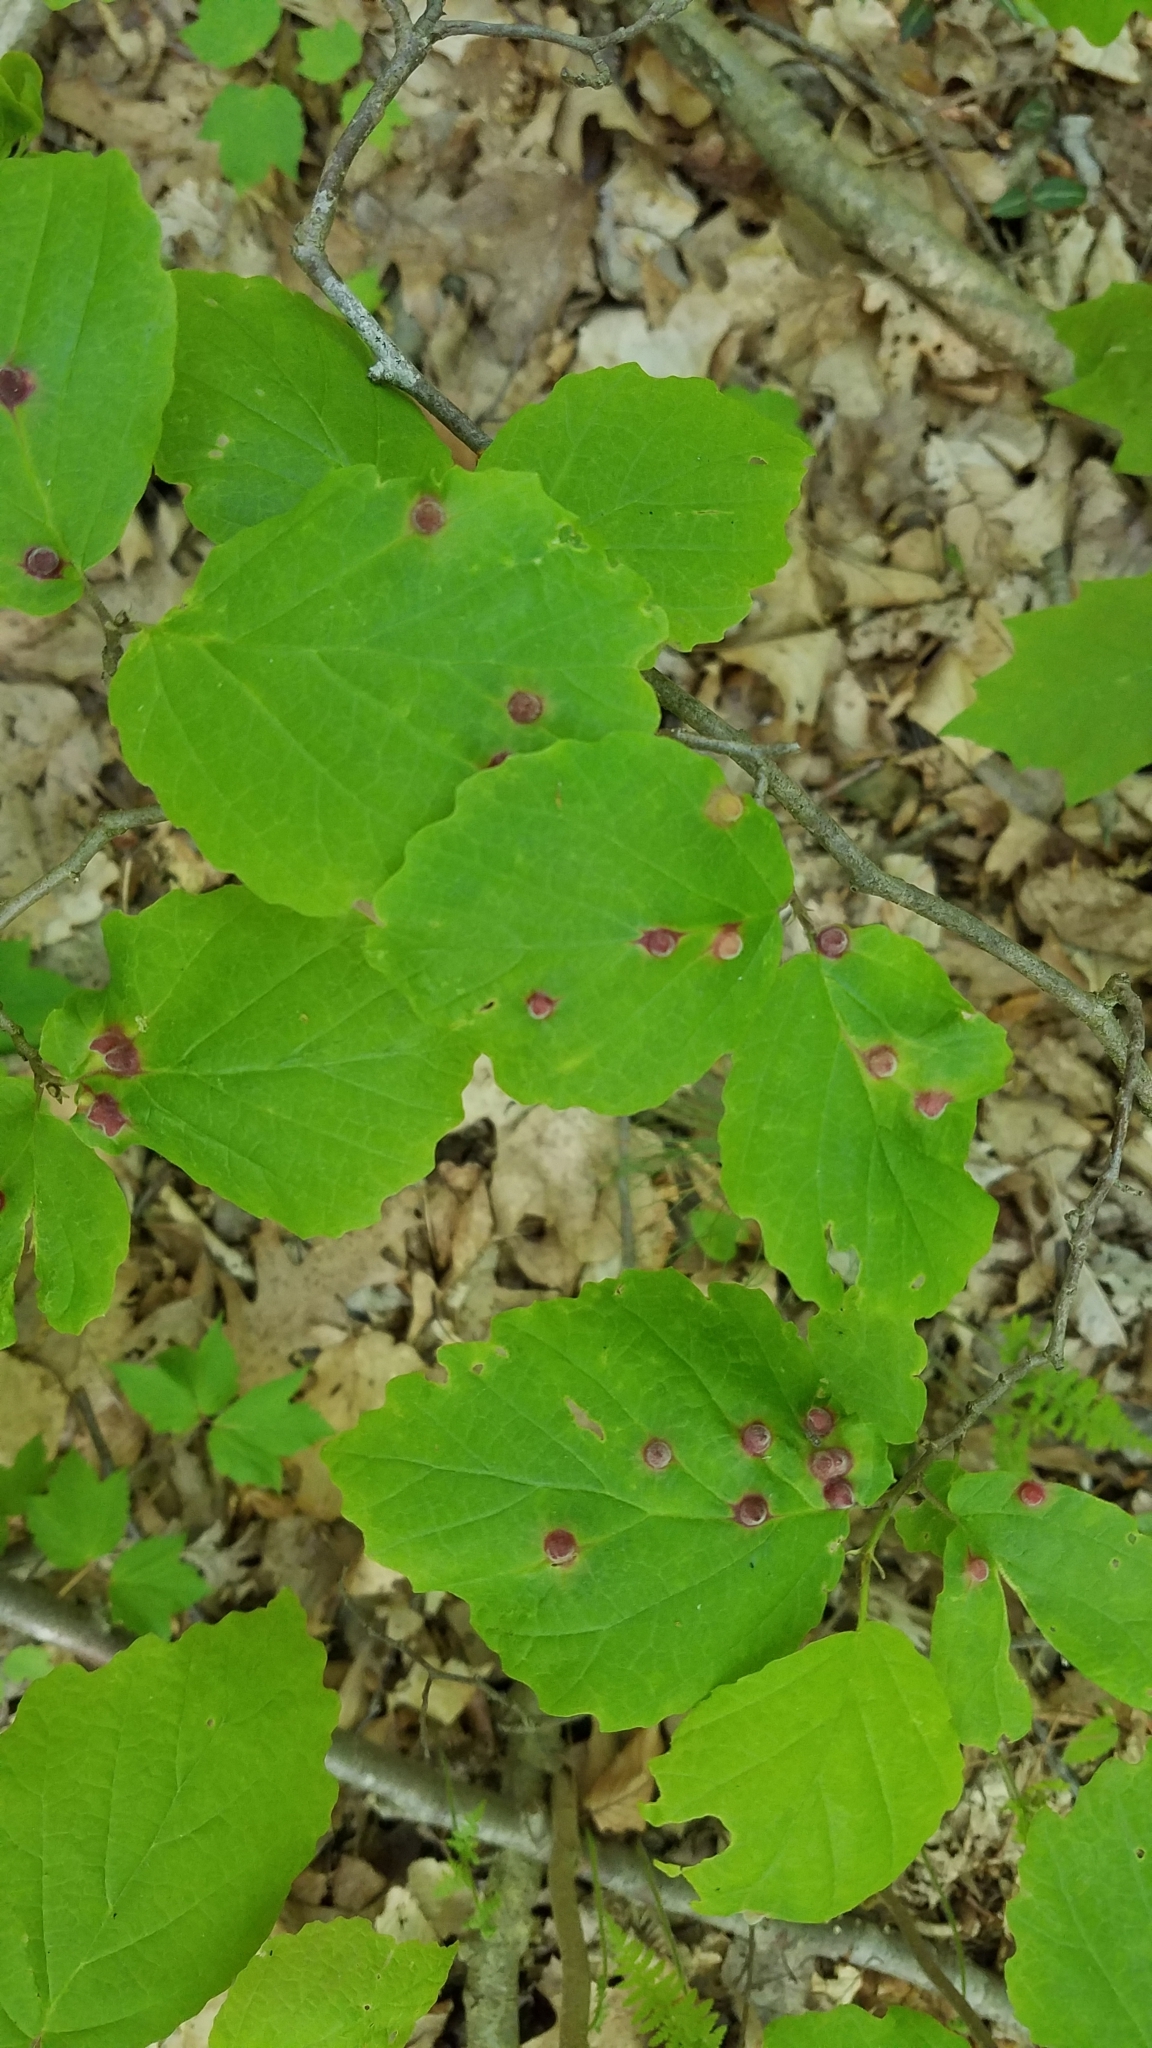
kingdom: Animalia
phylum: Arthropoda
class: Insecta
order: Hemiptera
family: Aphididae
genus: Hormaphis
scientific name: Hormaphis hamamelidis
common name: Witch-hazel cone gall aphid
